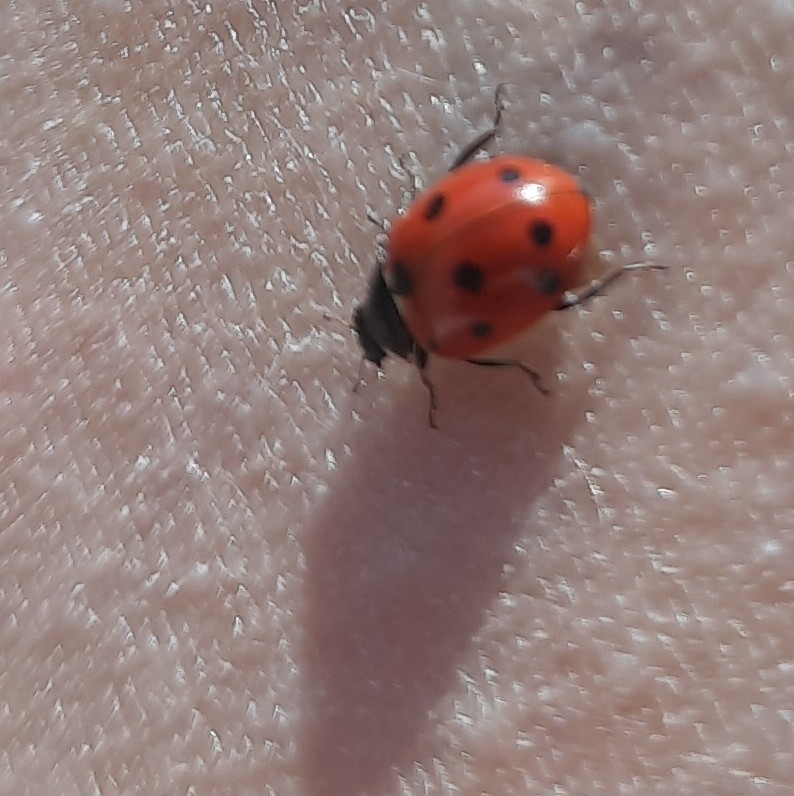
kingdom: Animalia
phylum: Arthropoda
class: Insecta
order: Coleoptera
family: Coccinellidae
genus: Coccinella
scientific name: Coccinella septempunctata
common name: Sevenspotted lady beetle
